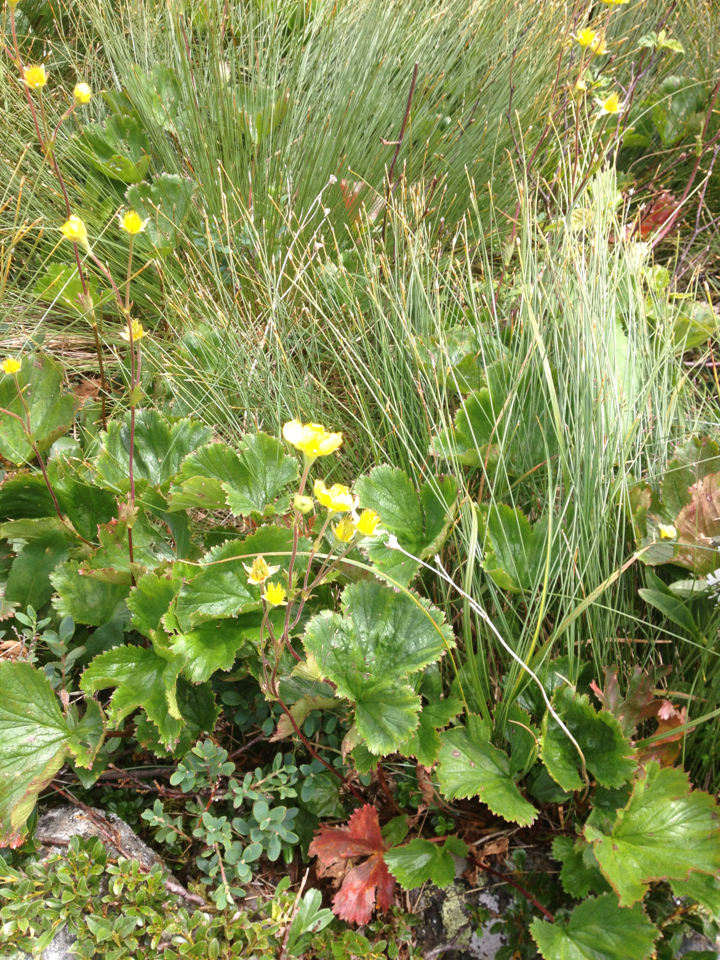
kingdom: Plantae
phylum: Tracheophyta
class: Magnoliopsida
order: Rosales
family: Rosaceae
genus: Geum
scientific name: Geum peckii
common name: Eastern mountain avens
